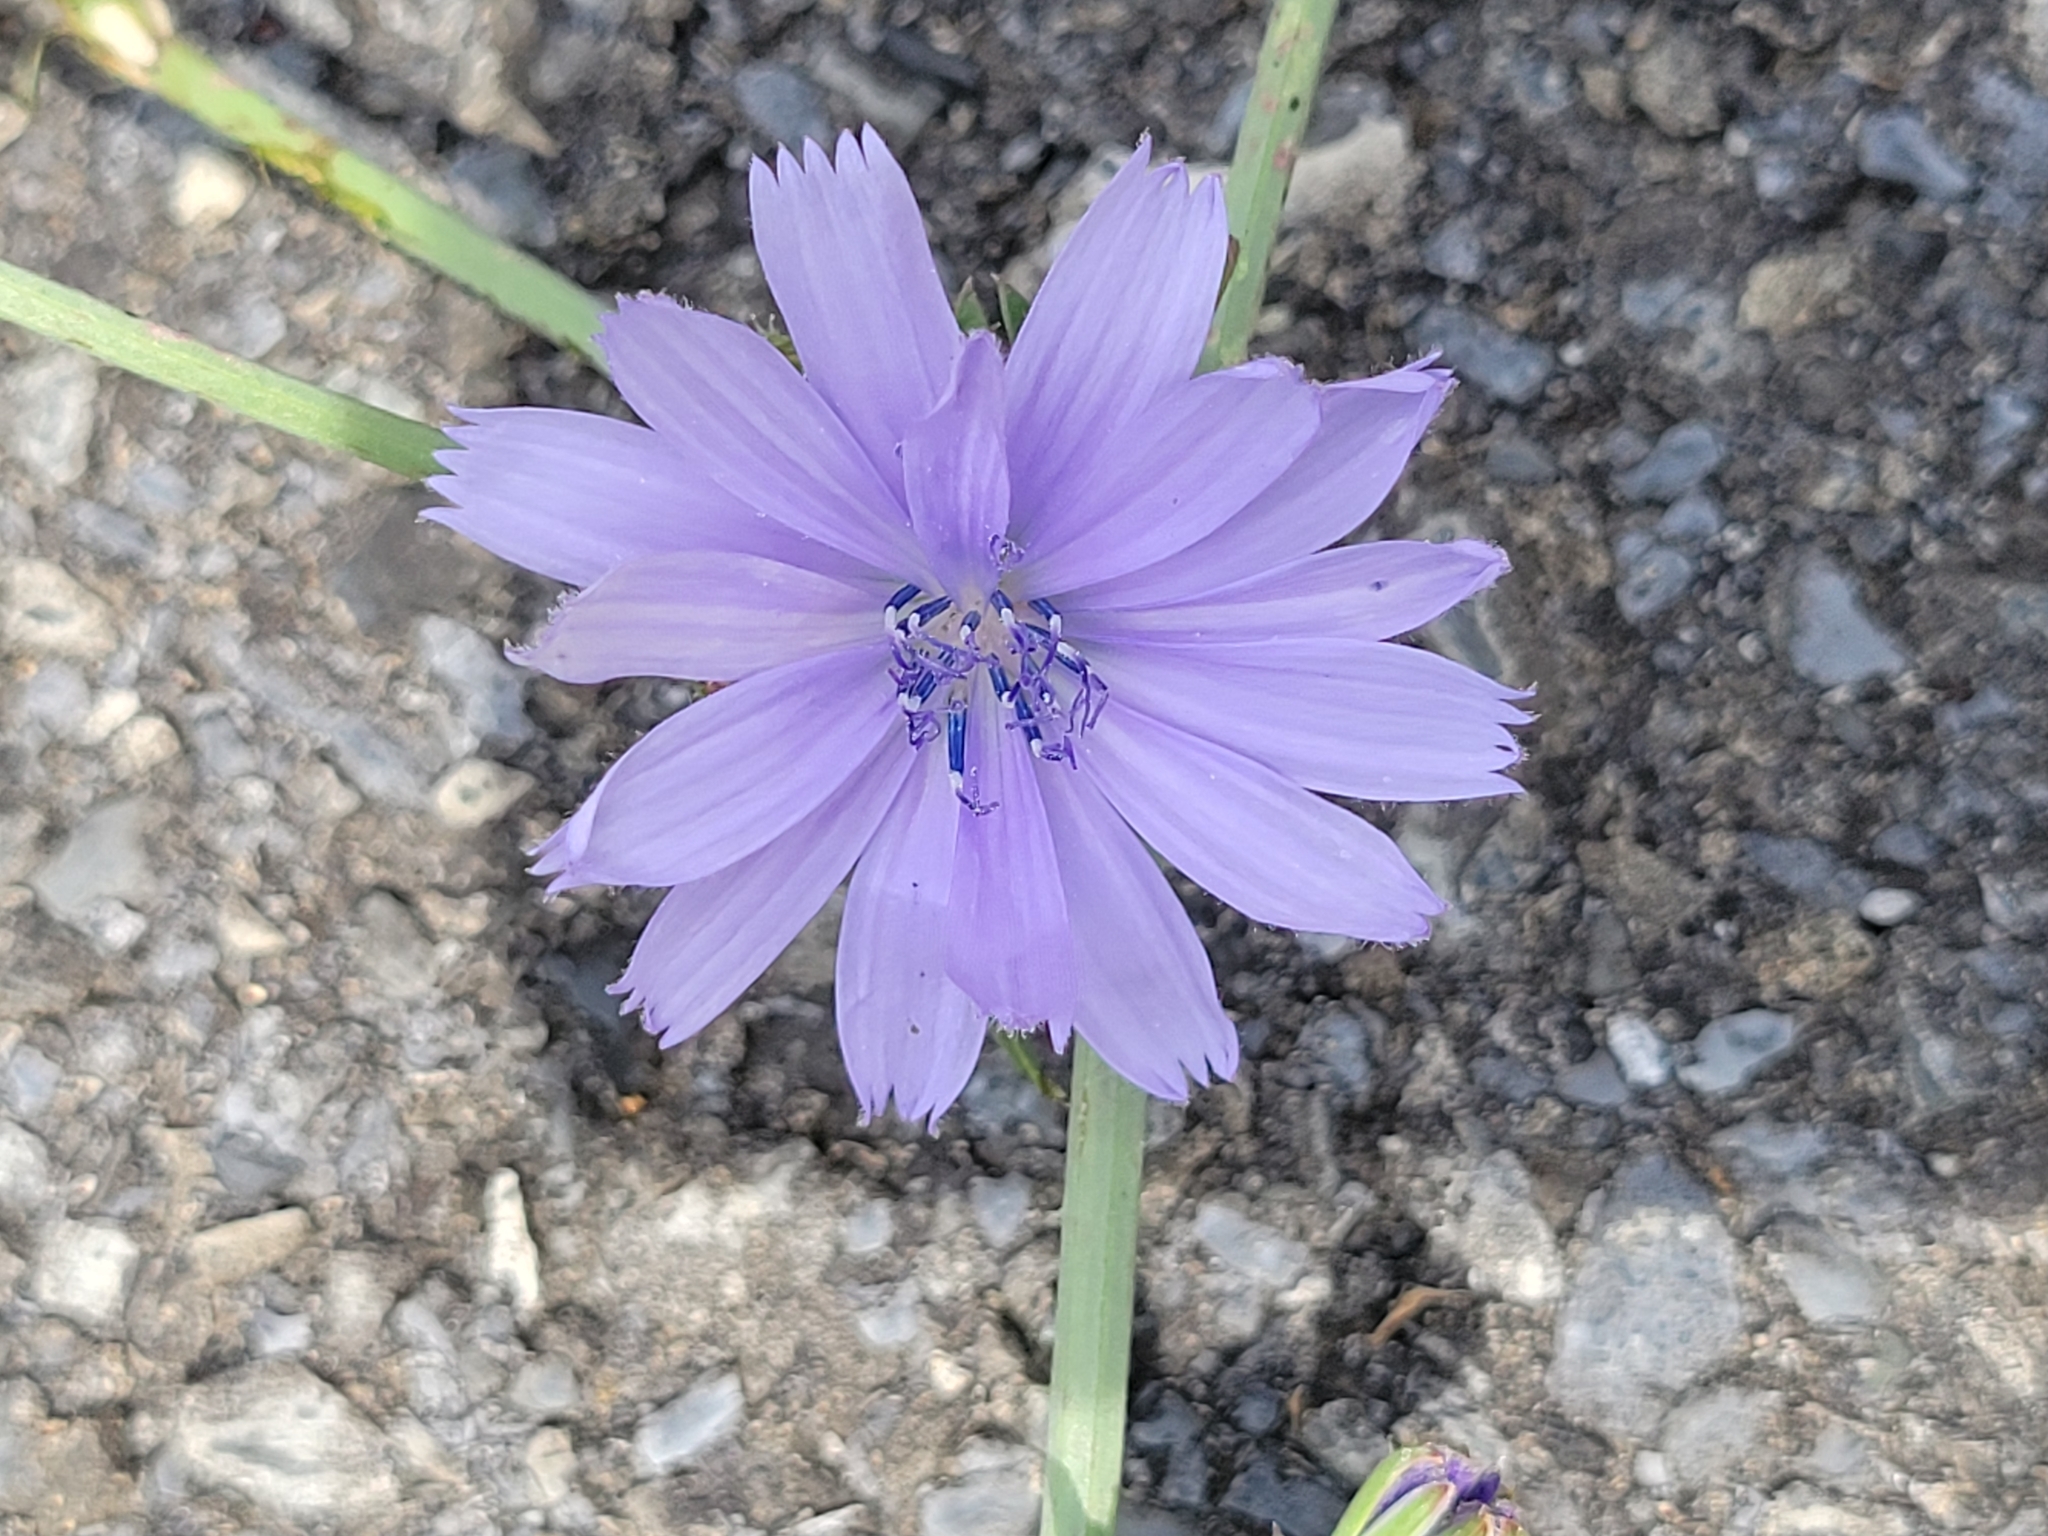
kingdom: Plantae
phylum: Tracheophyta
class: Magnoliopsida
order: Asterales
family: Asteraceae
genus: Cichorium
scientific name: Cichorium intybus
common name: Chicory
